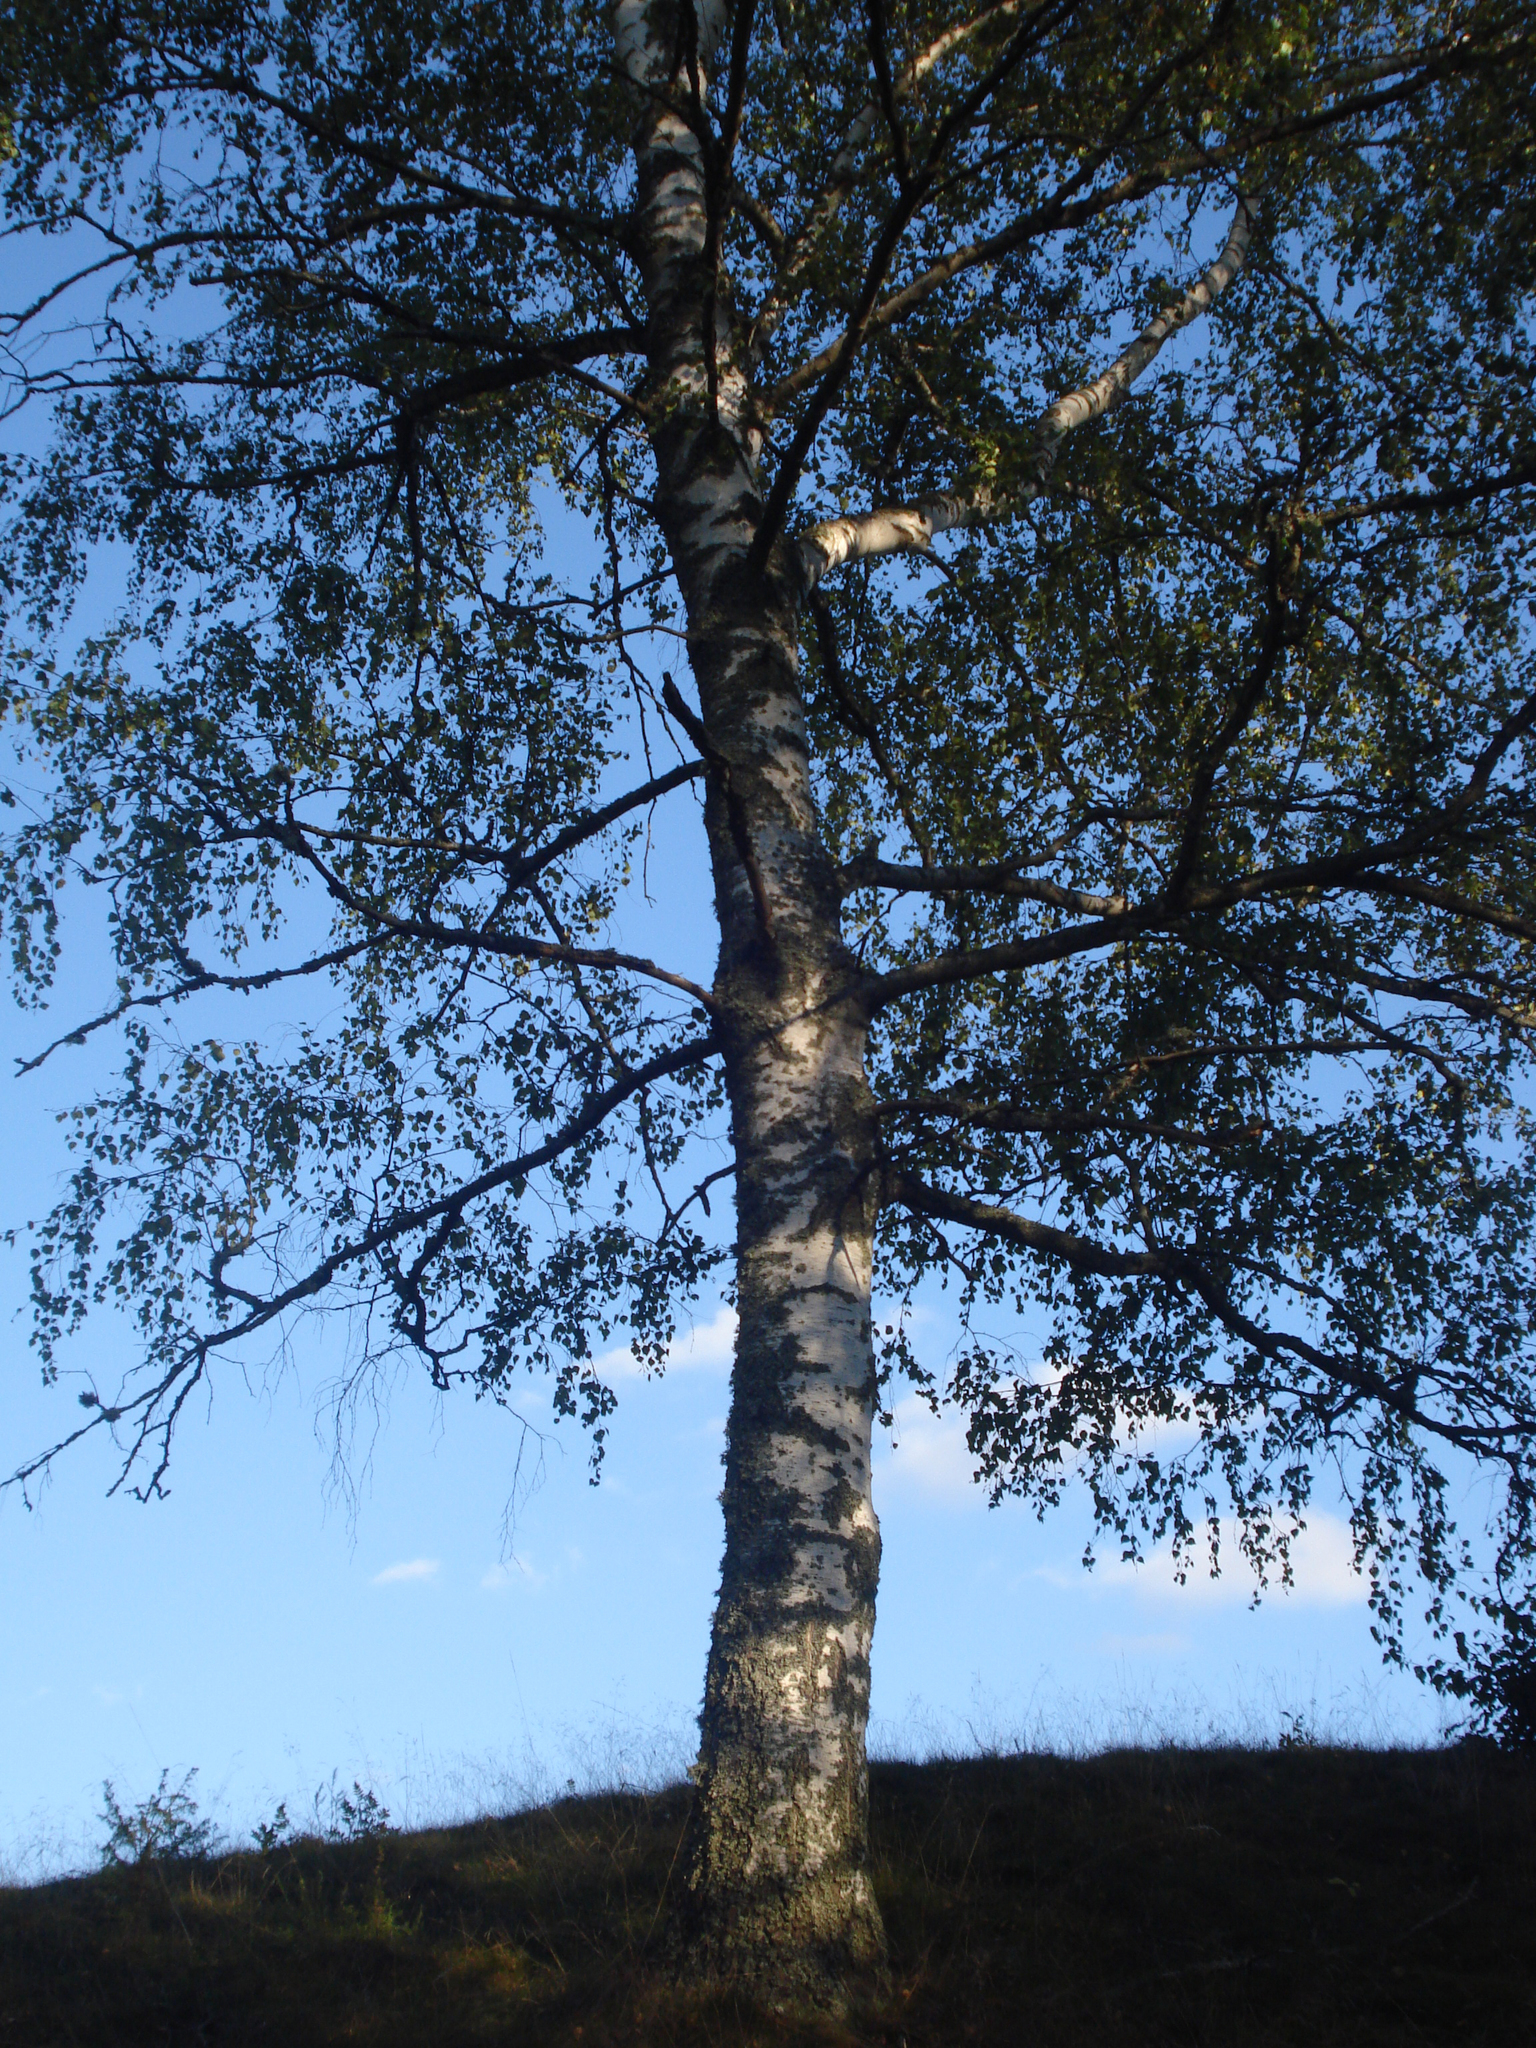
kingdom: Plantae
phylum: Tracheophyta
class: Magnoliopsida
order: Malpighiales
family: Salicaceae
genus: Populus
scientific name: Populus alba
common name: White poplar
